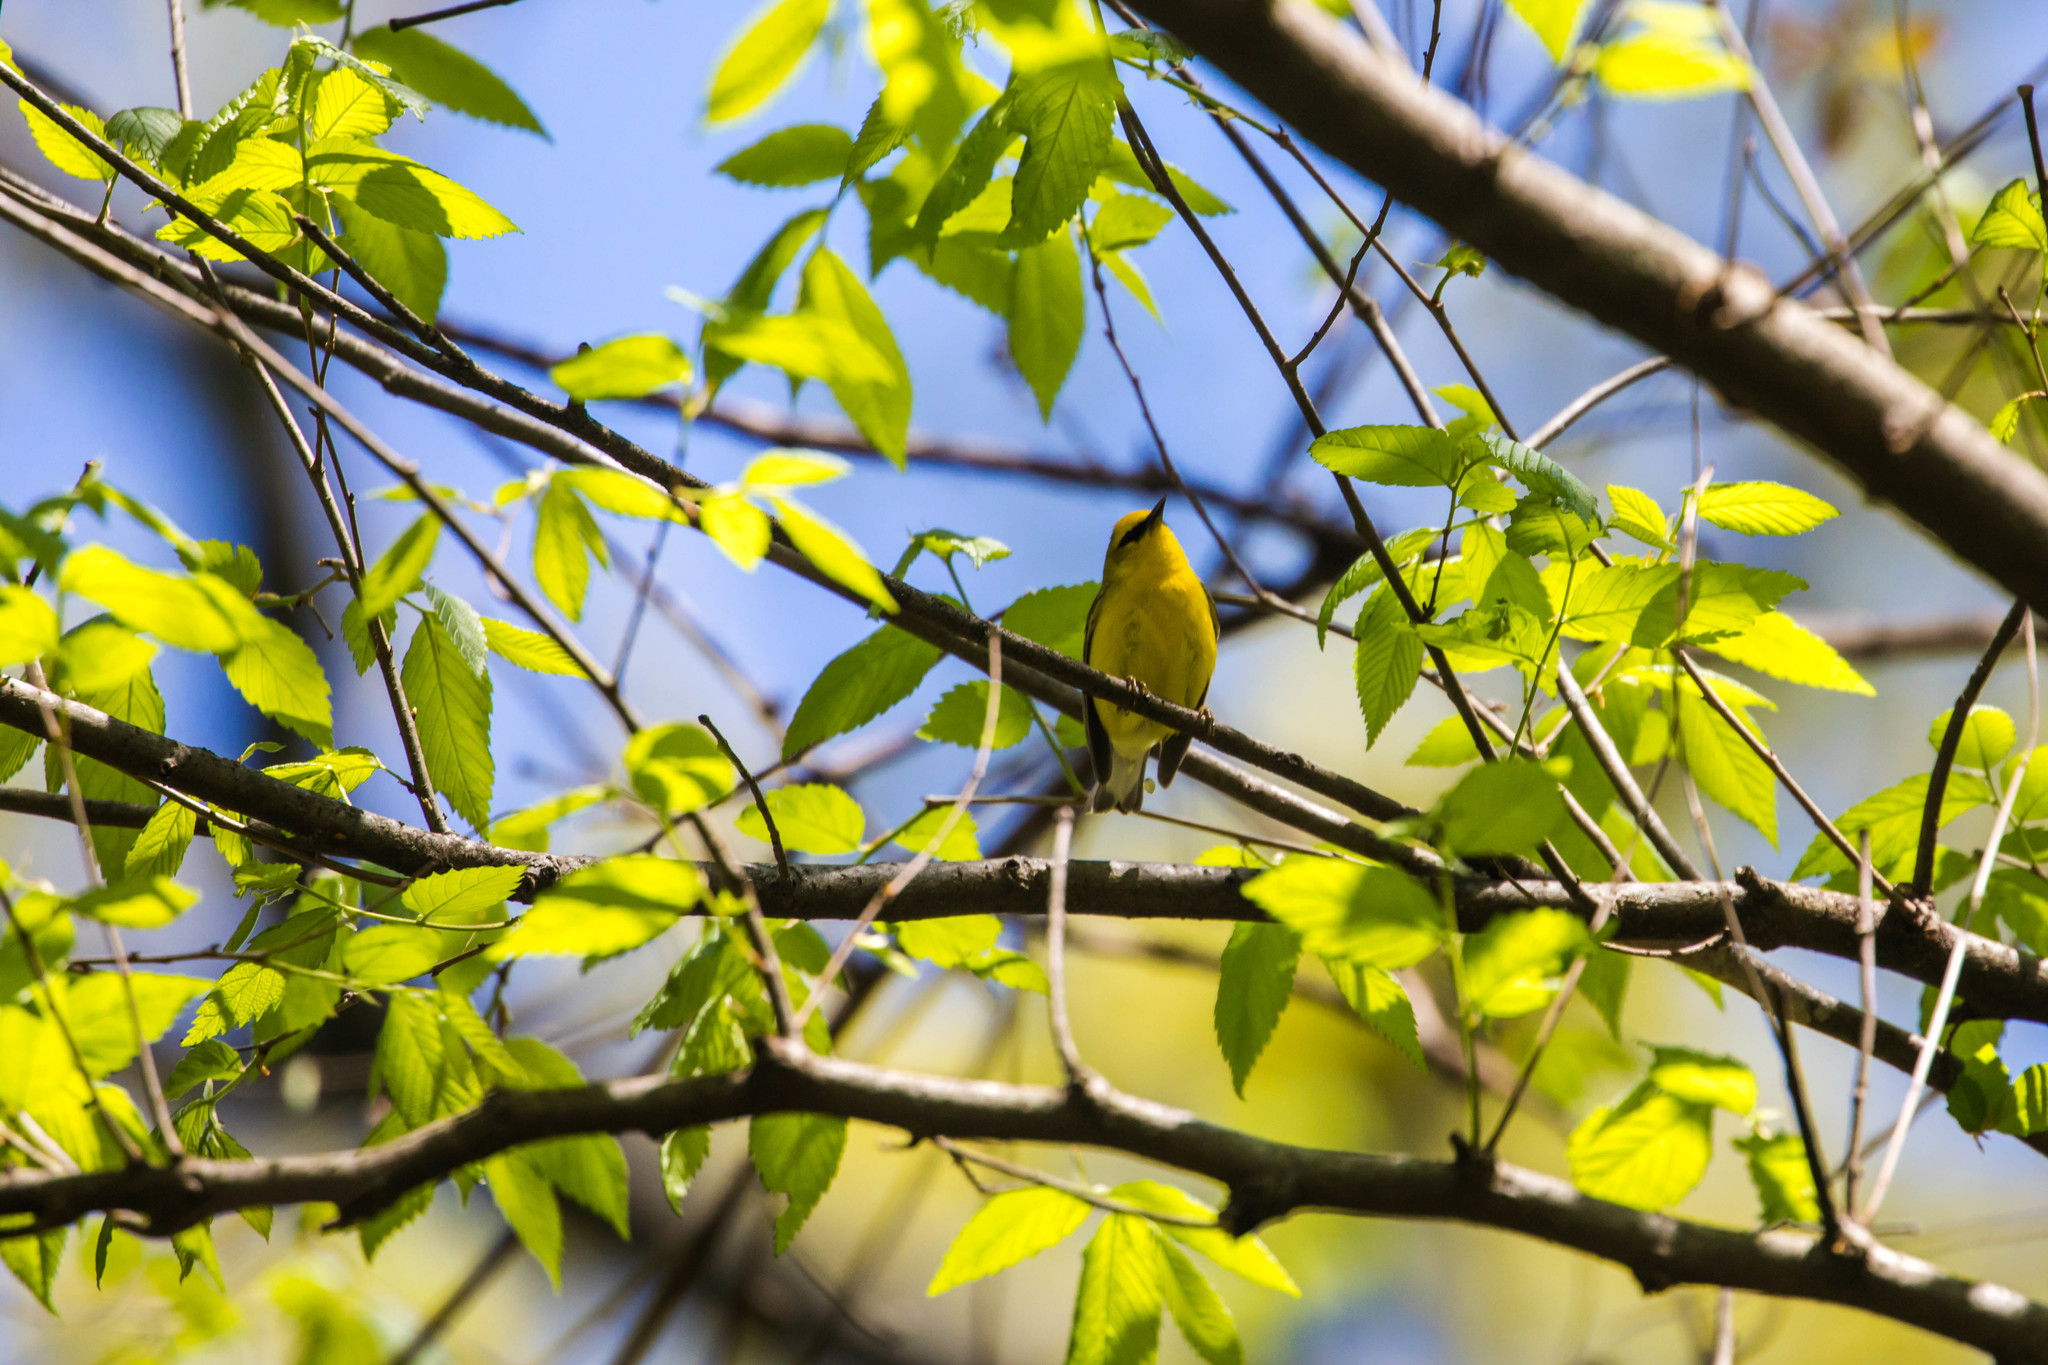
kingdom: Animalia
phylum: Chordata
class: Aves
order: Passeriformes
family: Parulidae
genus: Vermivora
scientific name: Vermivora cyanoptera
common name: Blue-winged warbler
